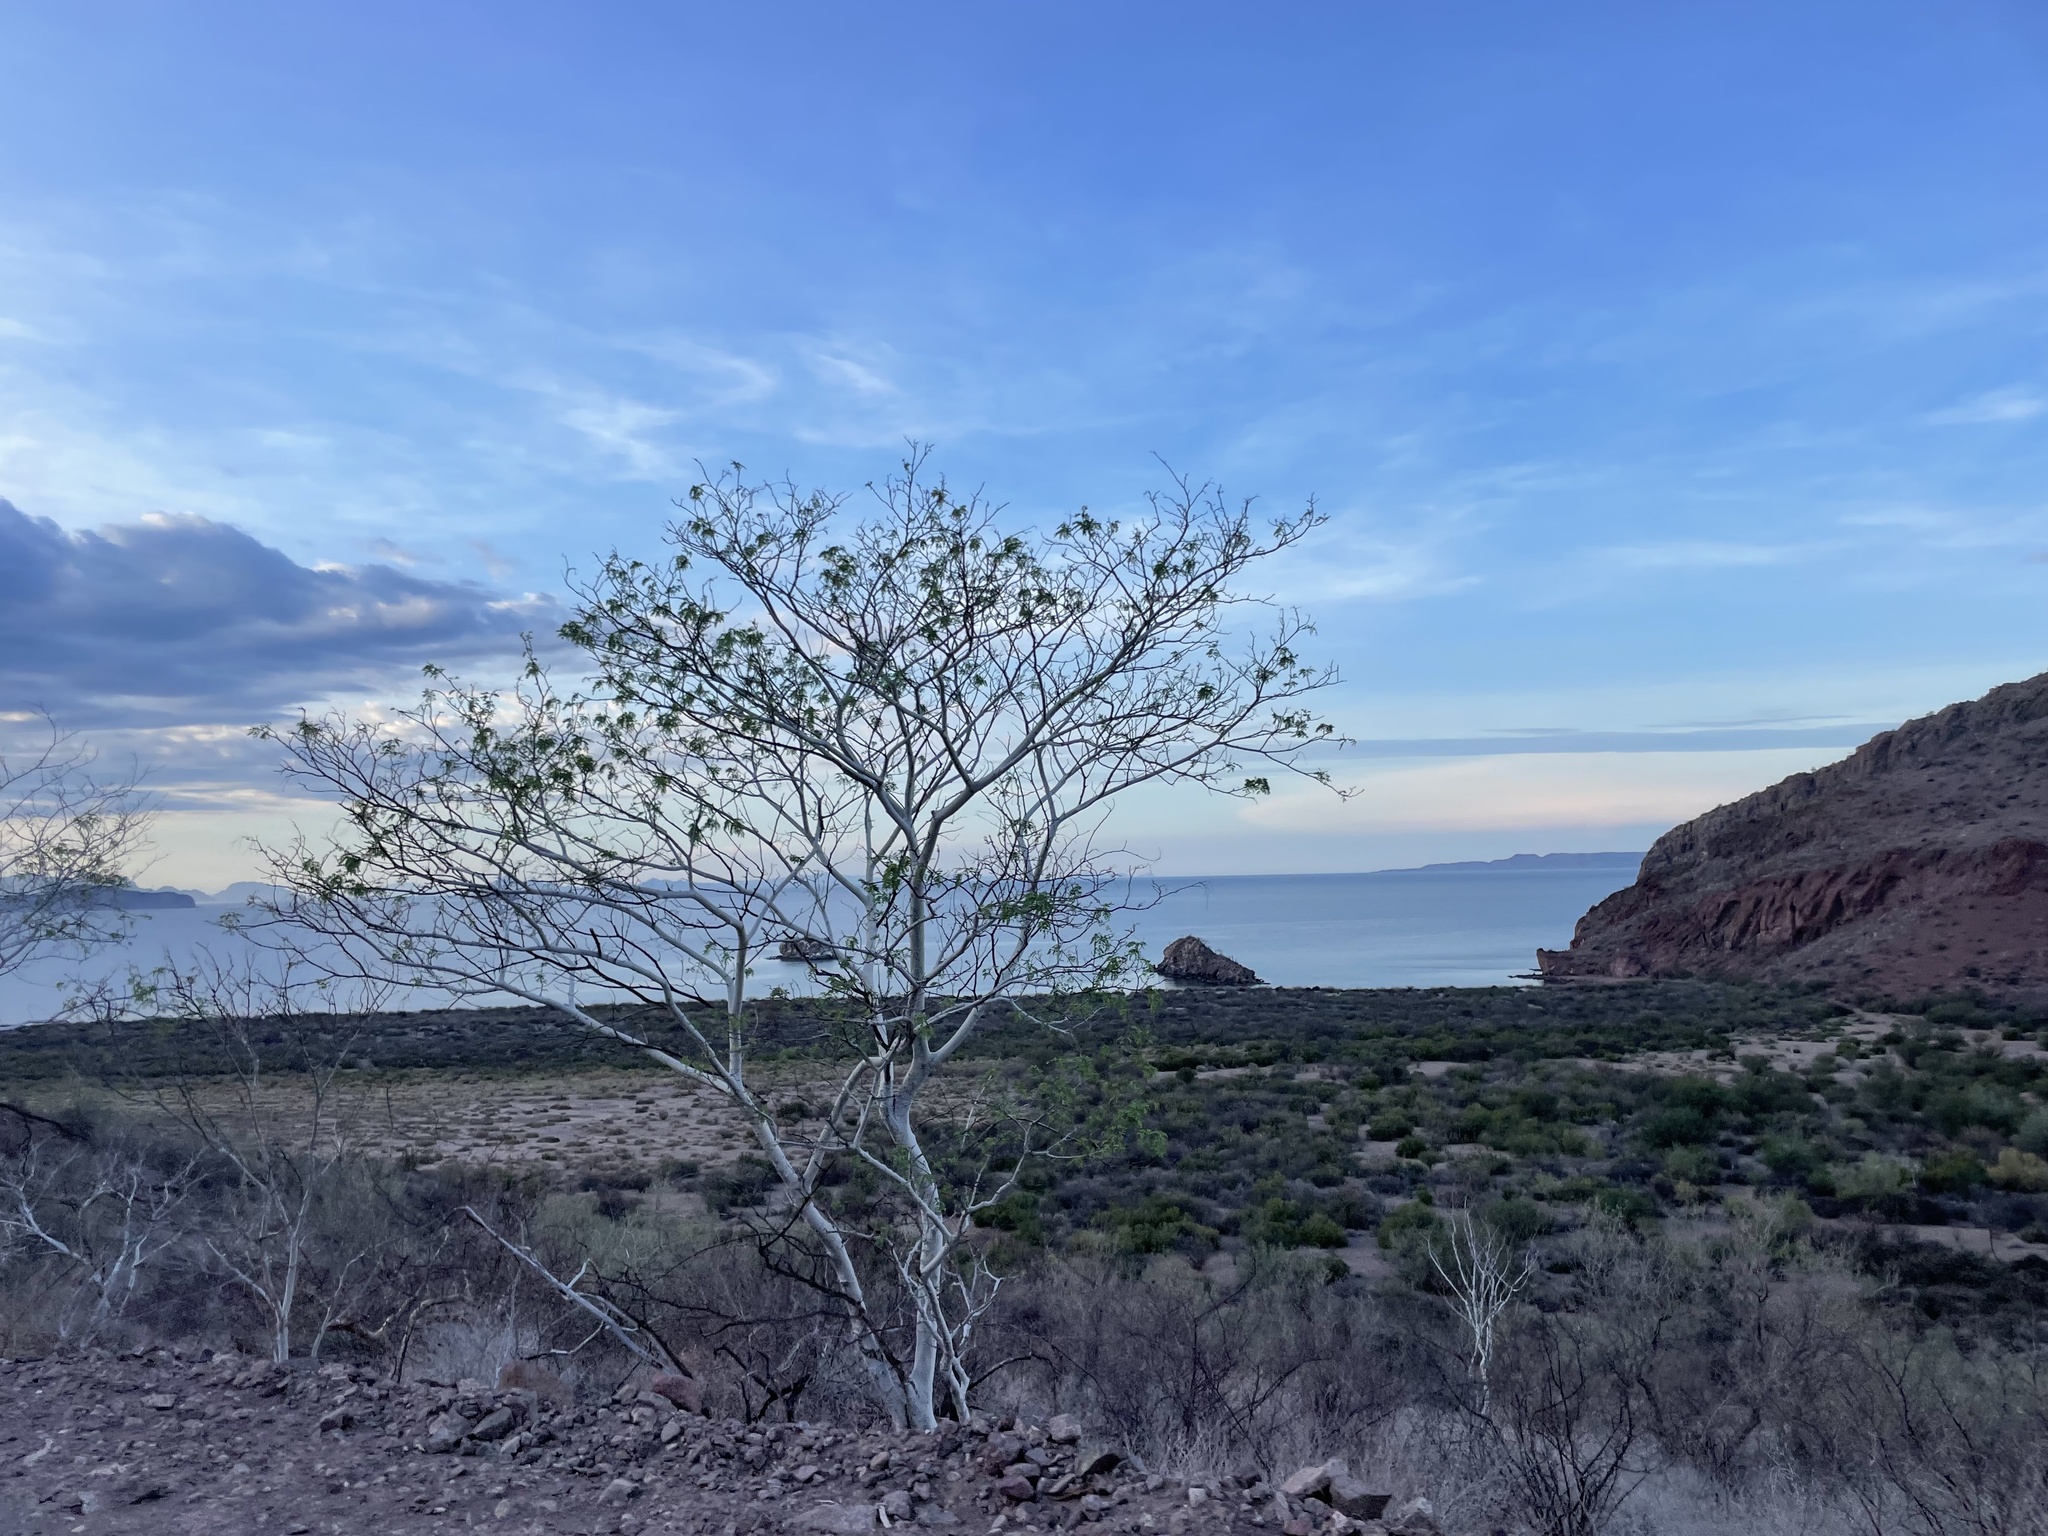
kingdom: Plantae
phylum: Tracheophyta
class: Magnoliopsida
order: Fabales
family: Fabaceae
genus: Lysiloma
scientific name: Lysiloma candidum
